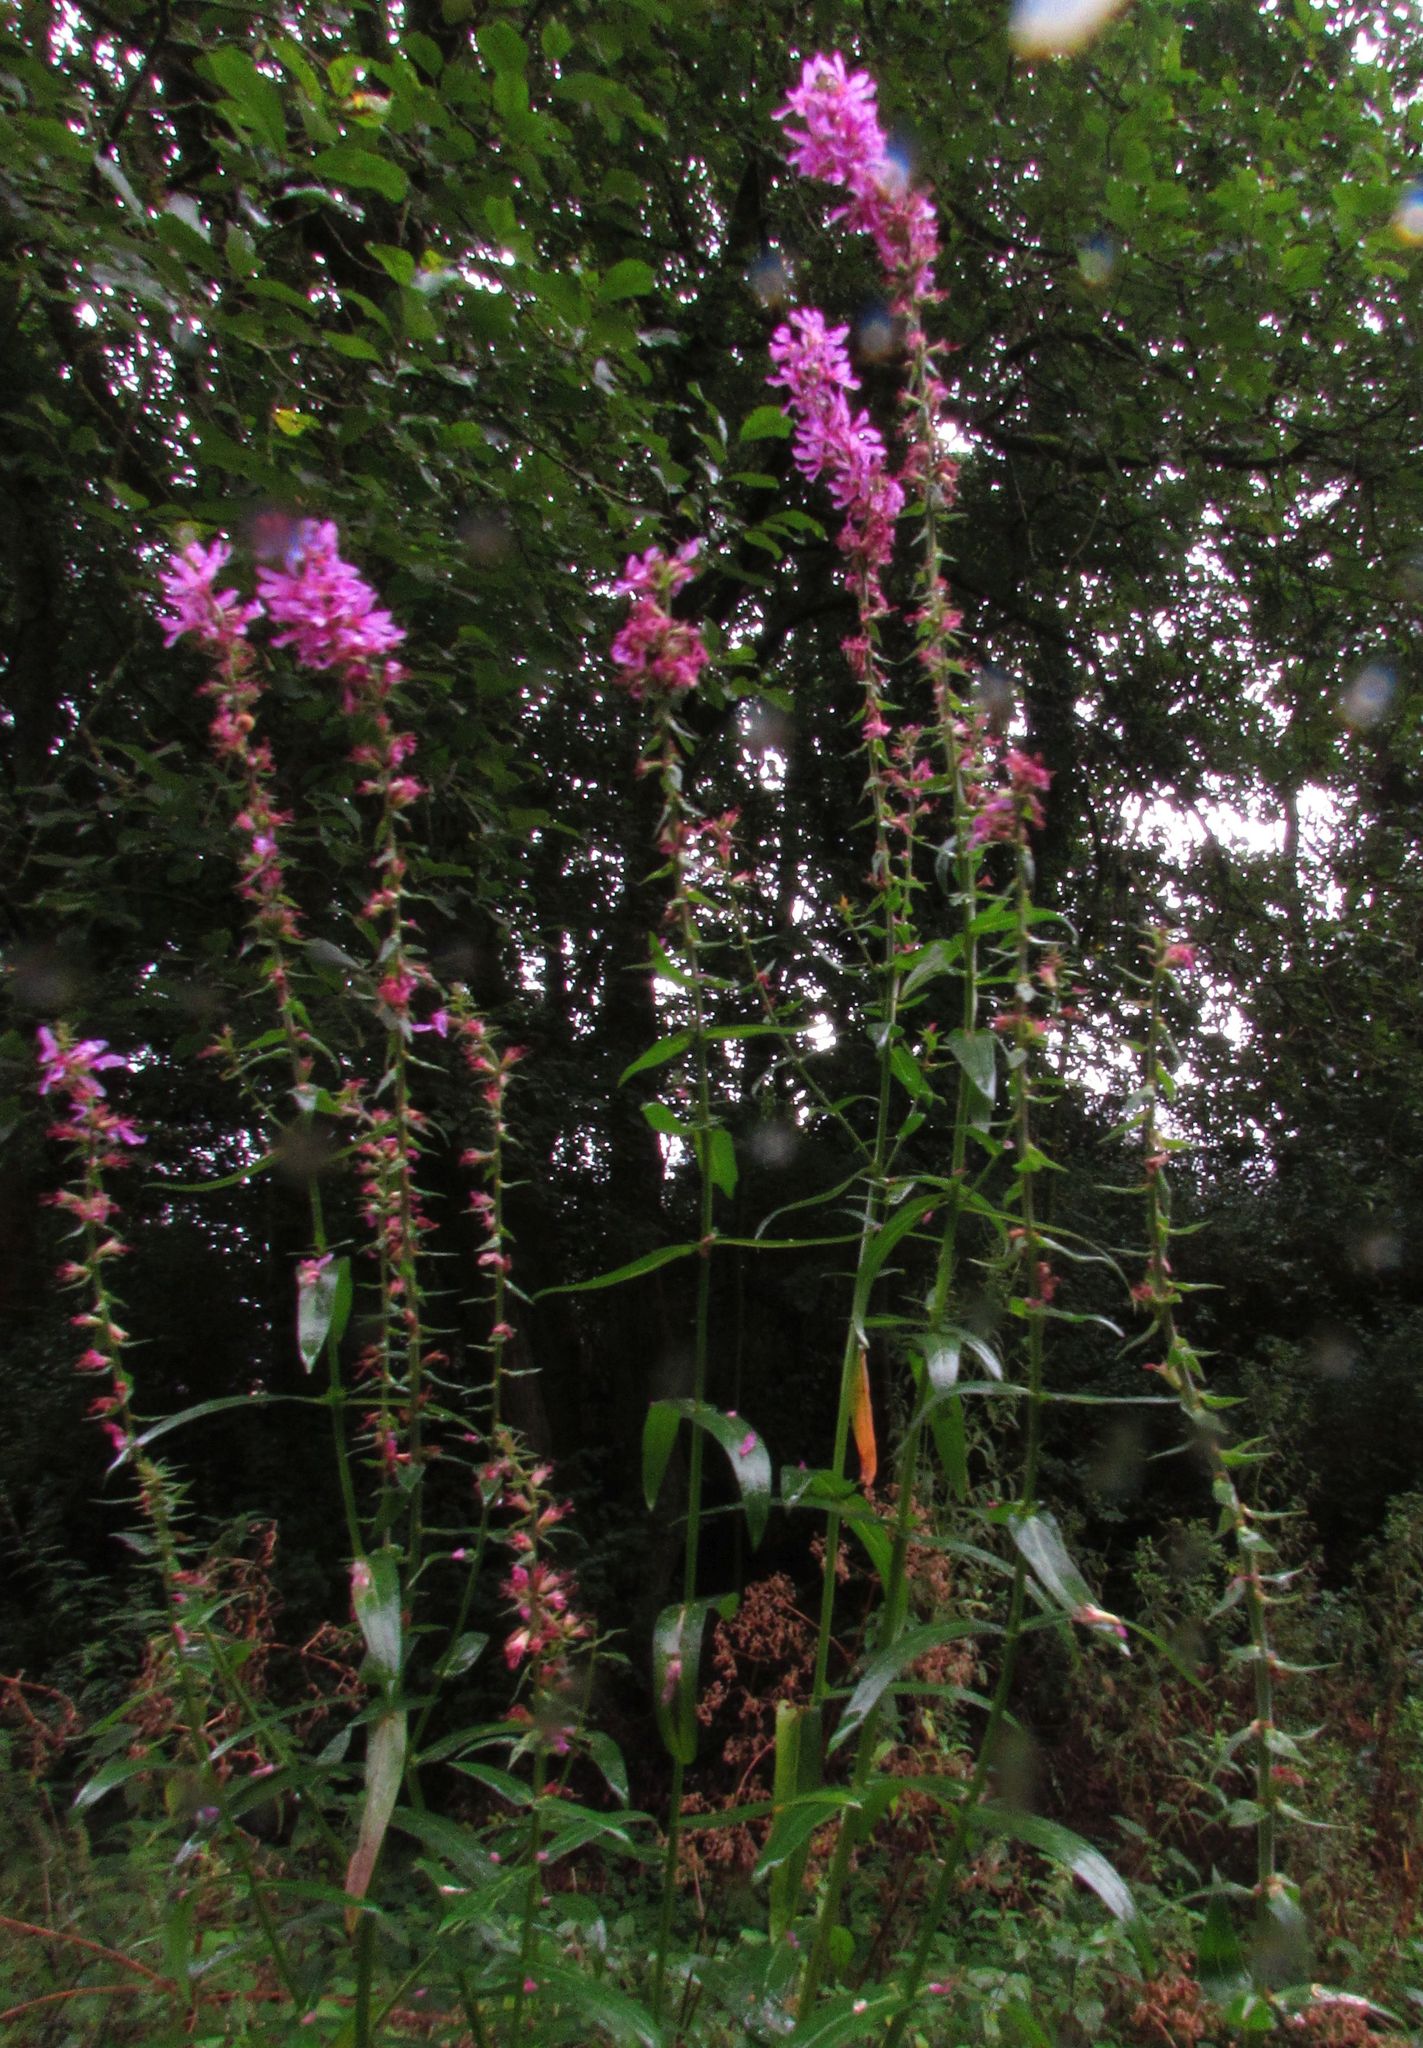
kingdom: Plantae
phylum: Tracheophyta
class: Magnoliopsida
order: Myrtales
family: Lythraceae
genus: Lythrum
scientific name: Lythrum salicaria
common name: Purple loosestrife
